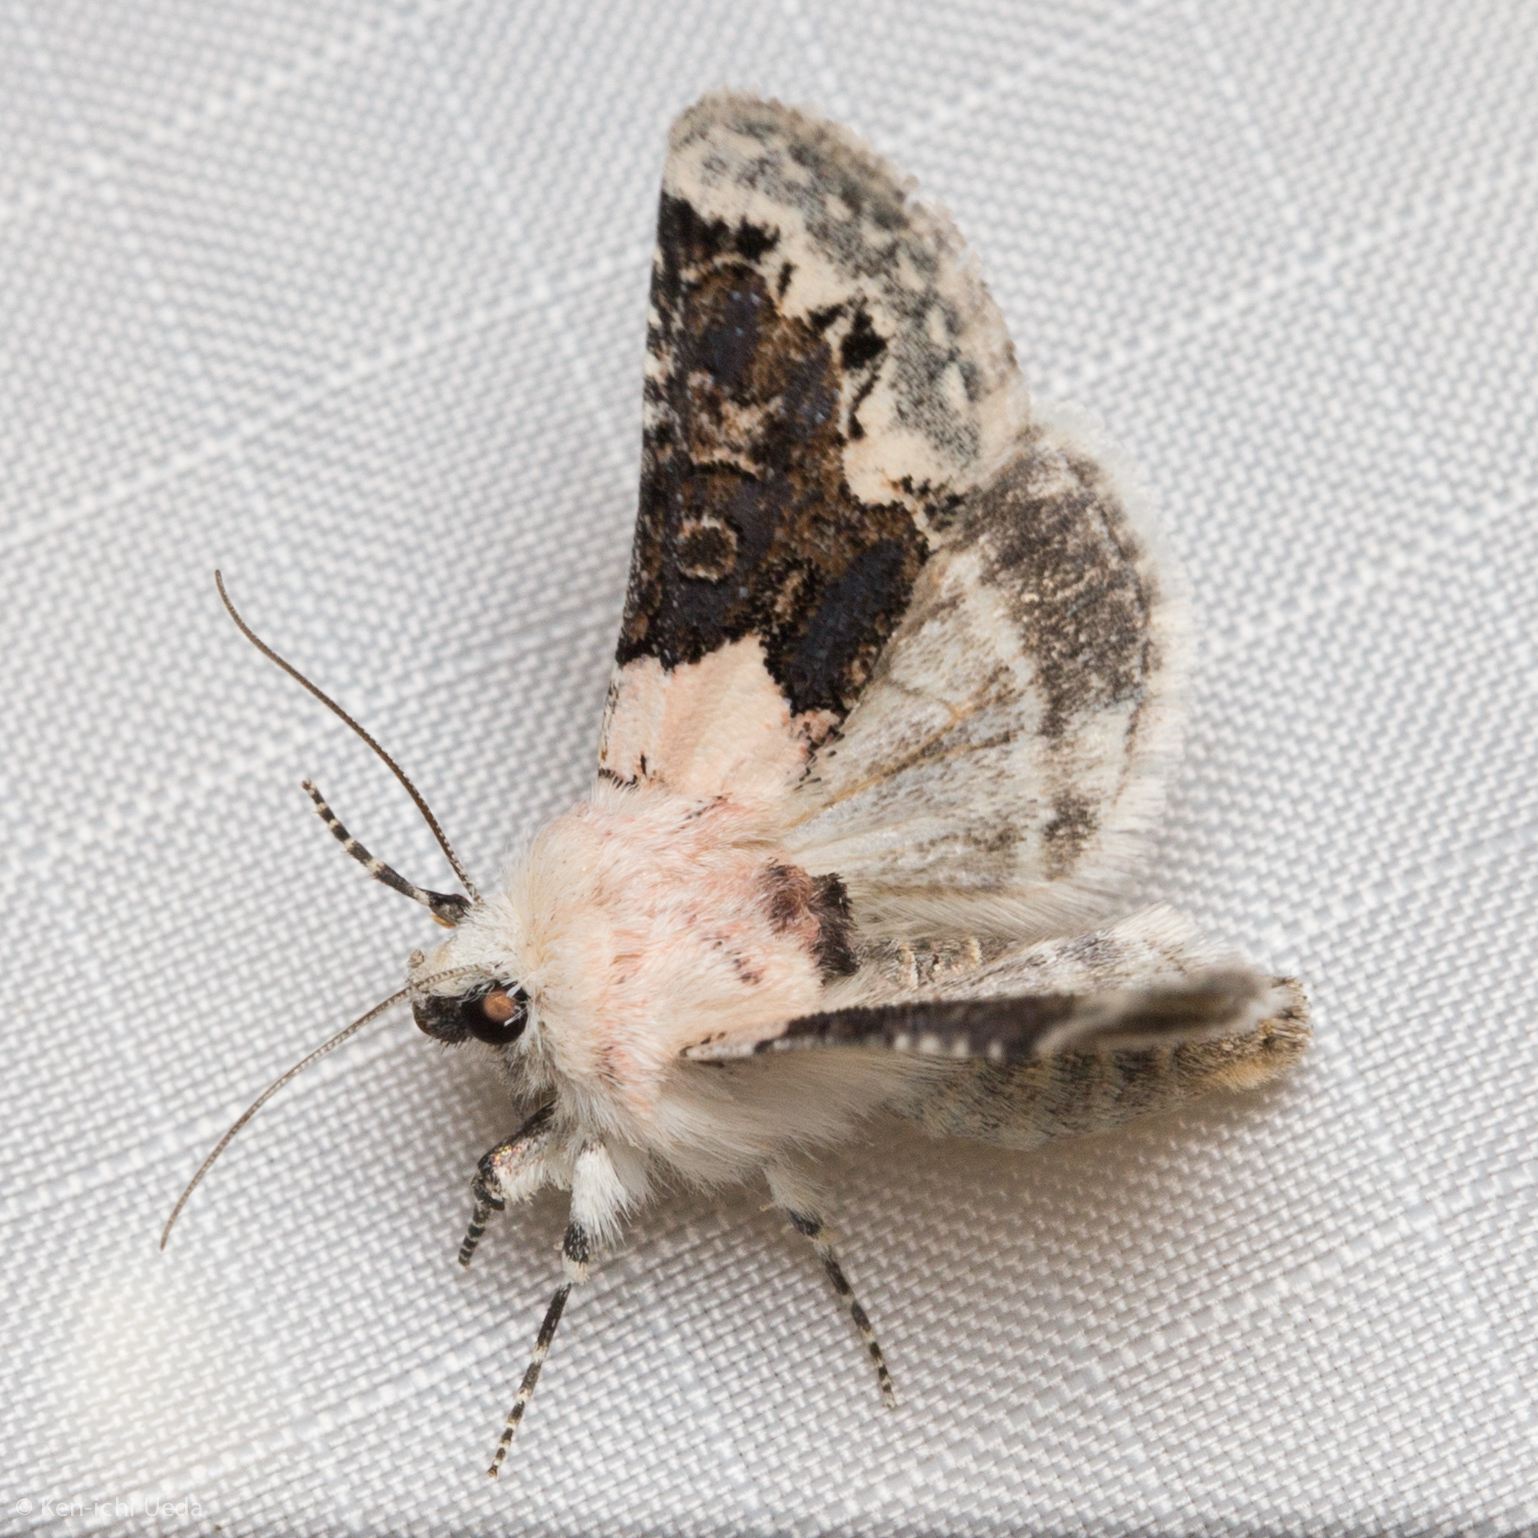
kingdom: Animalia
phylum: Arthropoda
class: Insecta
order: Lepidoptera
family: Noctuidae
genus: Triocnemis
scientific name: Triocnemis saporis
